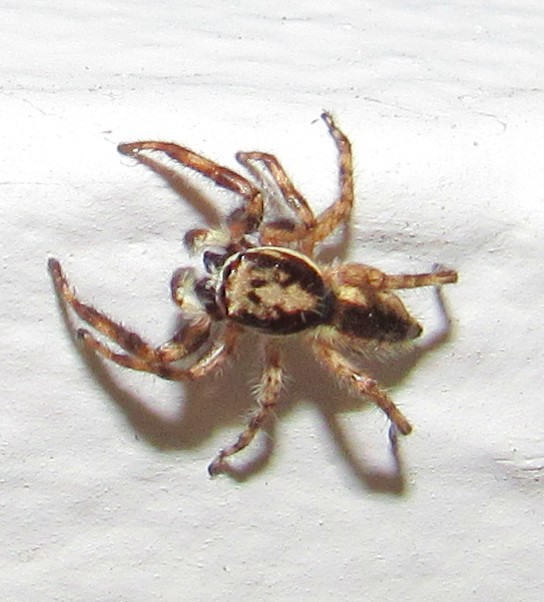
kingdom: Animalia
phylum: Arthropoda
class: Arachnida
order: Araneae
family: Salticidae
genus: Menemerus
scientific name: Menemerus bivittatus
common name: Gray wall jumper
